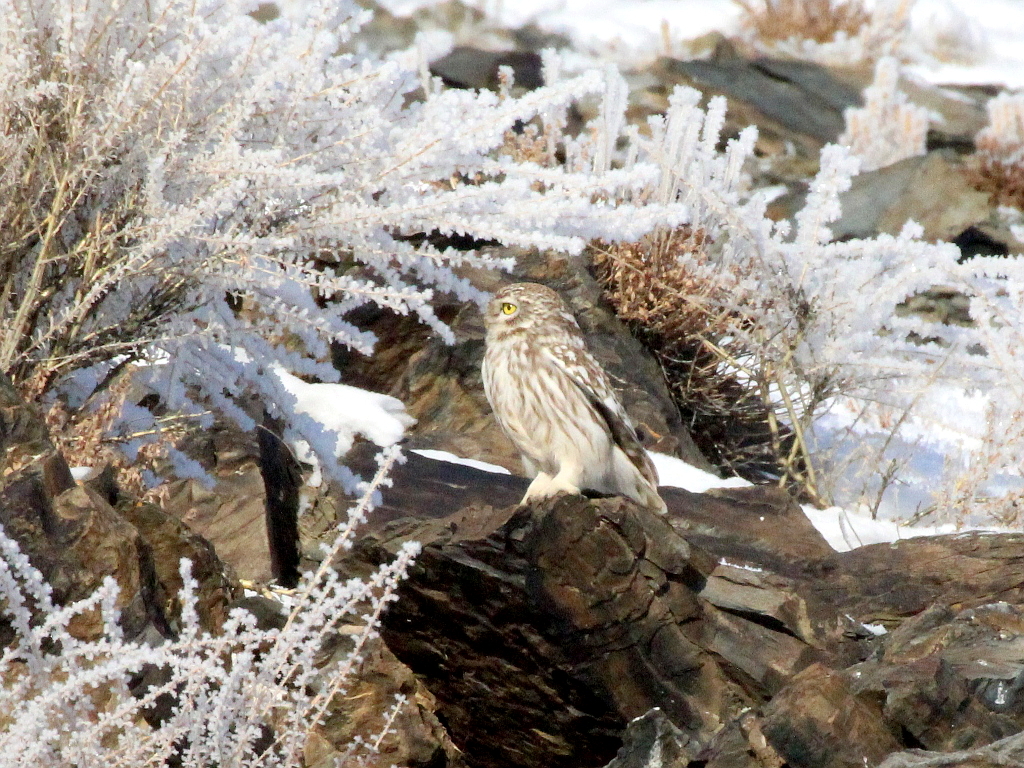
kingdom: Animalia
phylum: Chordata
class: Aves
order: Strigiformes
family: Strigidae
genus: Athene
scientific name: Athene noctua
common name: Little owl
